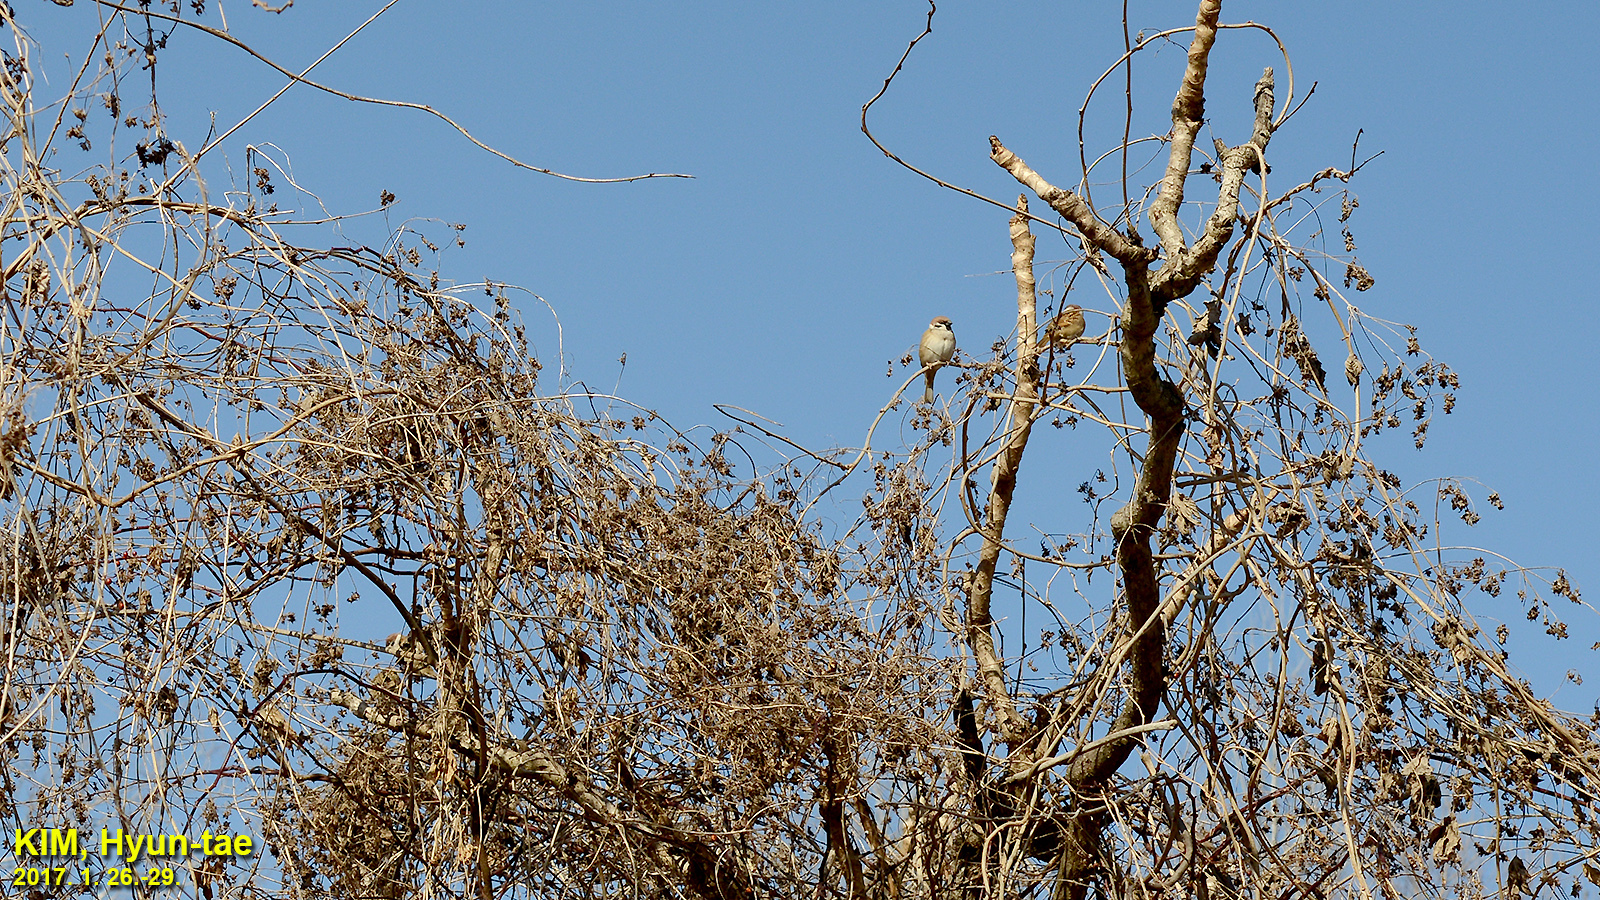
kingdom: Animalia
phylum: Chordata
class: Aves
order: Passeriformes
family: Passeridae
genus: Passer
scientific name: Passer montanus
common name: Eurasian tree sparrow
